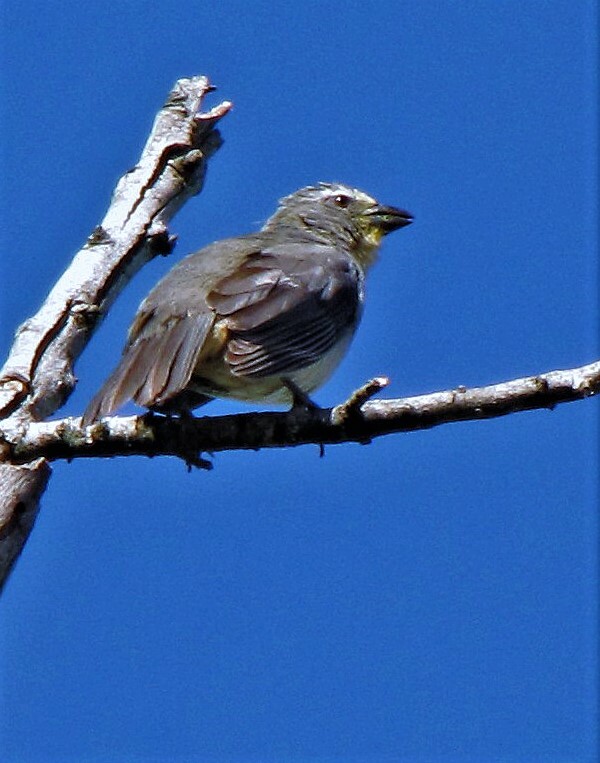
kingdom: Animalia
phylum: Chordata
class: Aves
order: Passeriformes
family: Thraupidae
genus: Saltator
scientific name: Saltator coerulescens
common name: Grayish saltator
